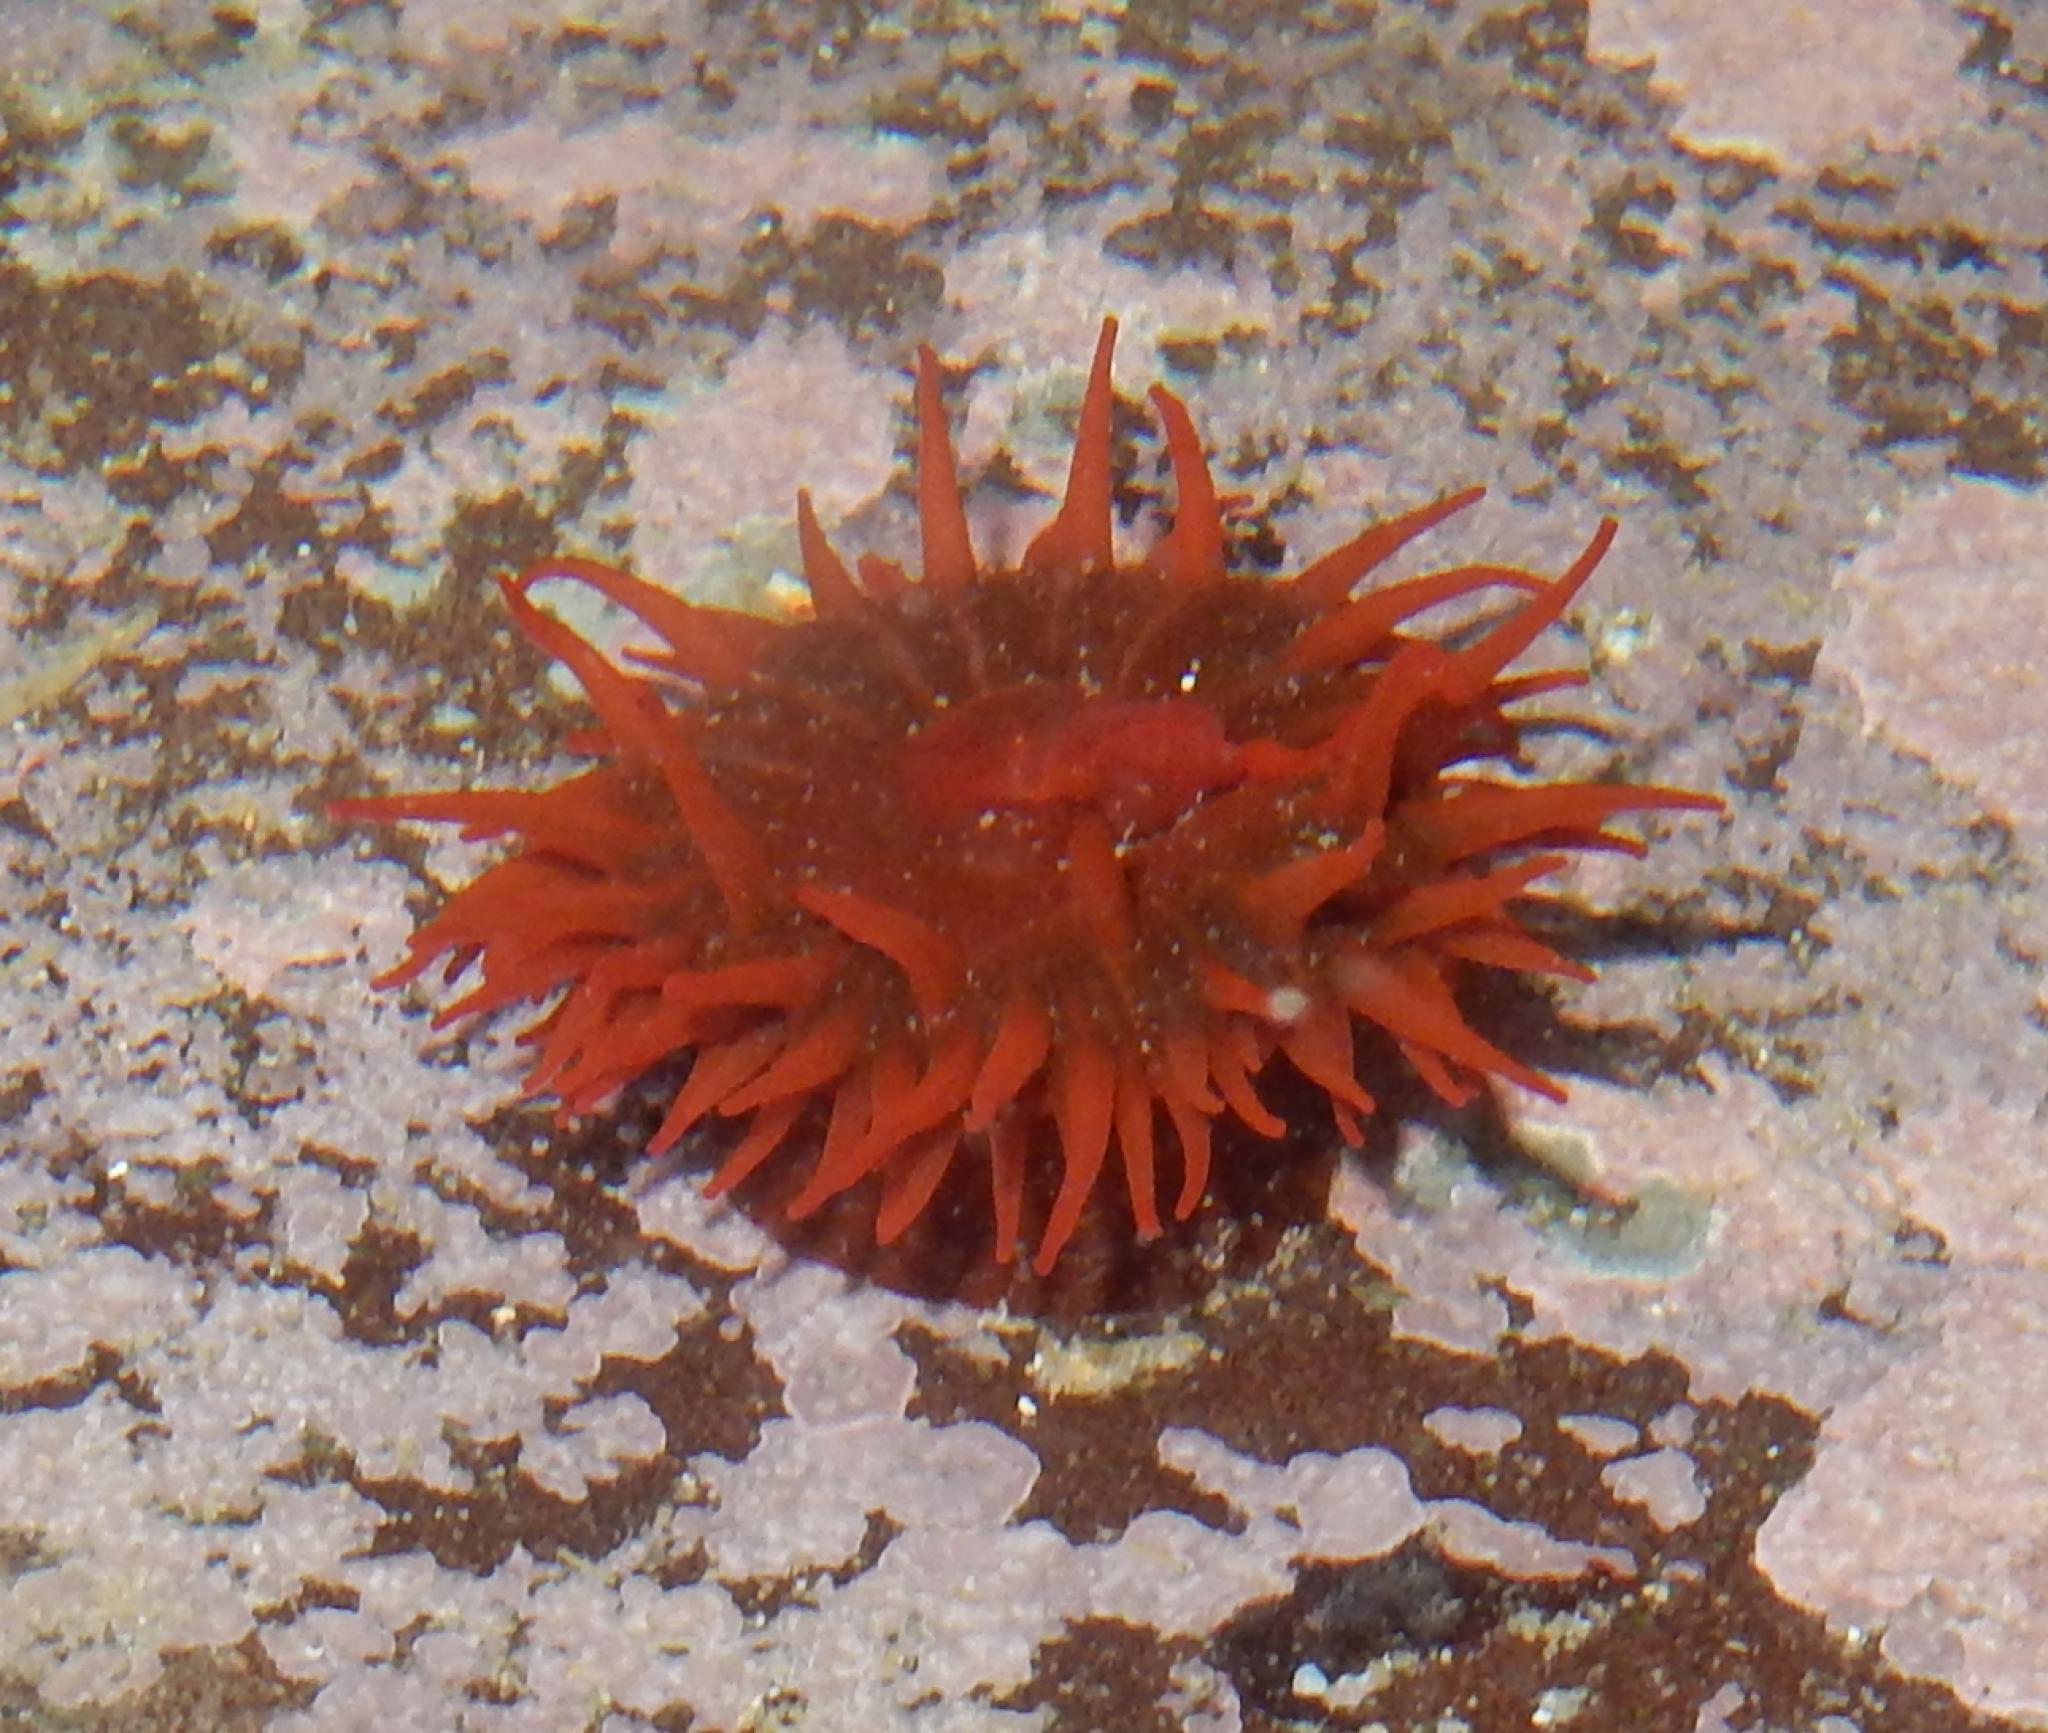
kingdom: Animalia
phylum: Cnidaria
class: Anthozoa
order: Actiniaria
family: Actiniidae
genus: Actinia
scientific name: Actinia ebhayiensis
